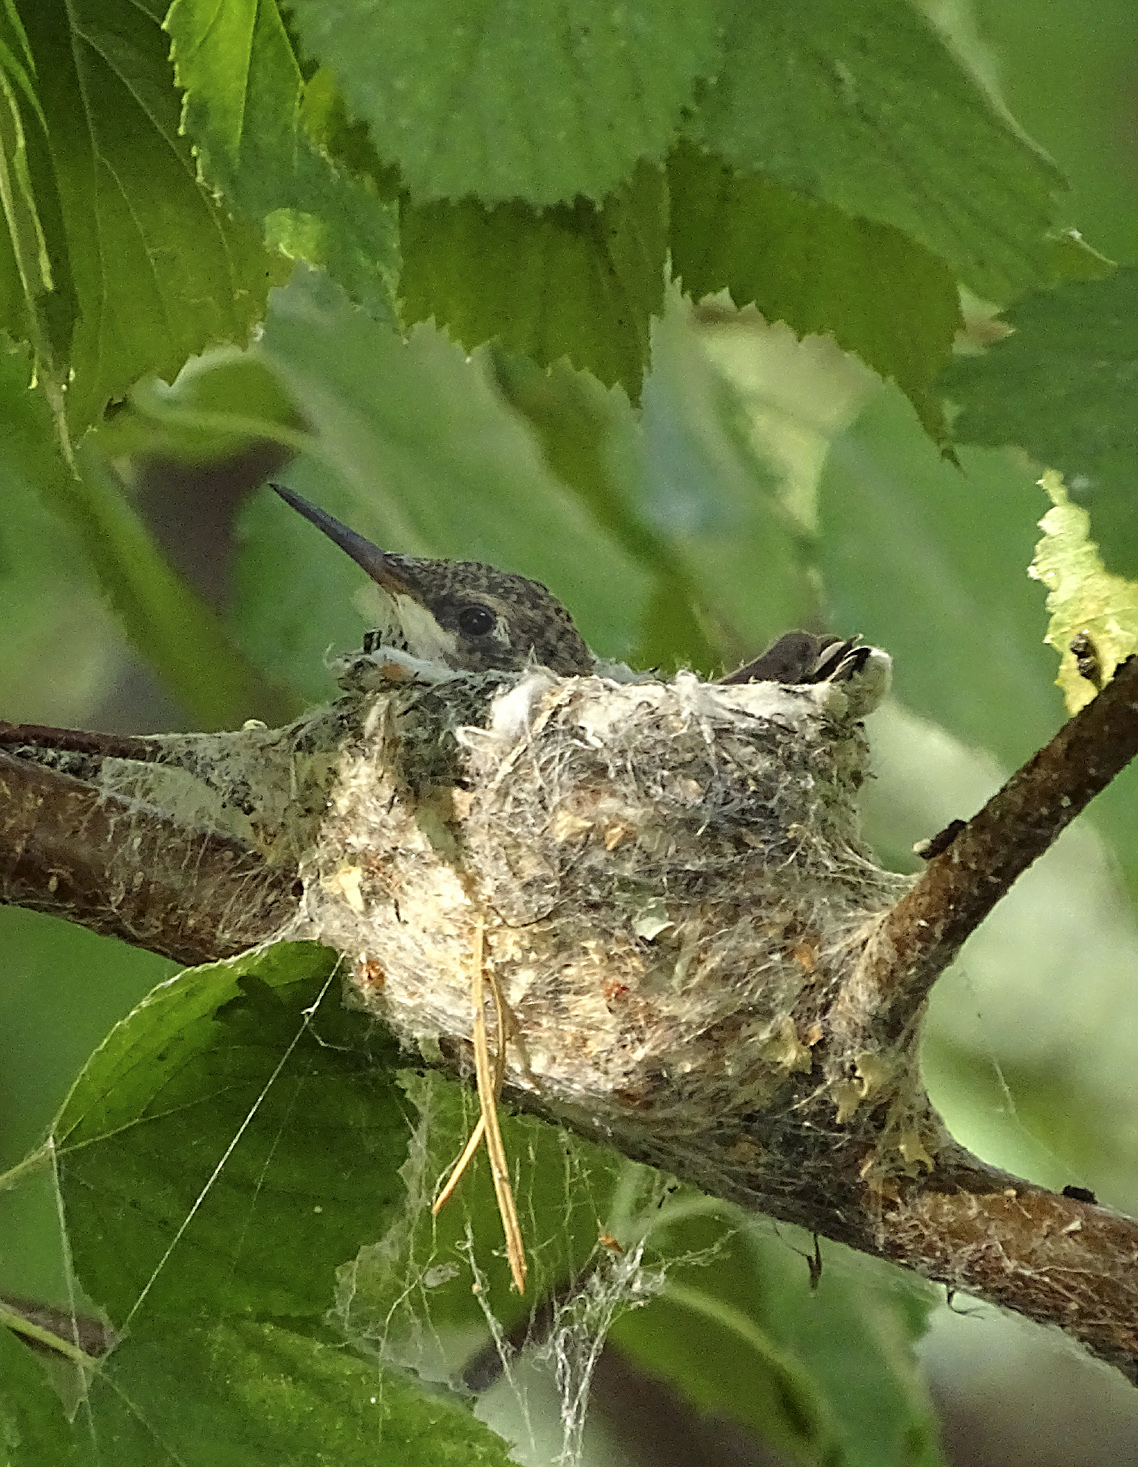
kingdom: Animalia
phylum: Chordata
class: Aves
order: Apodiformes
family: Trochilidae
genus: Archilochus
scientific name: Archilochus alexandri
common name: Black-chinned hummingbird
